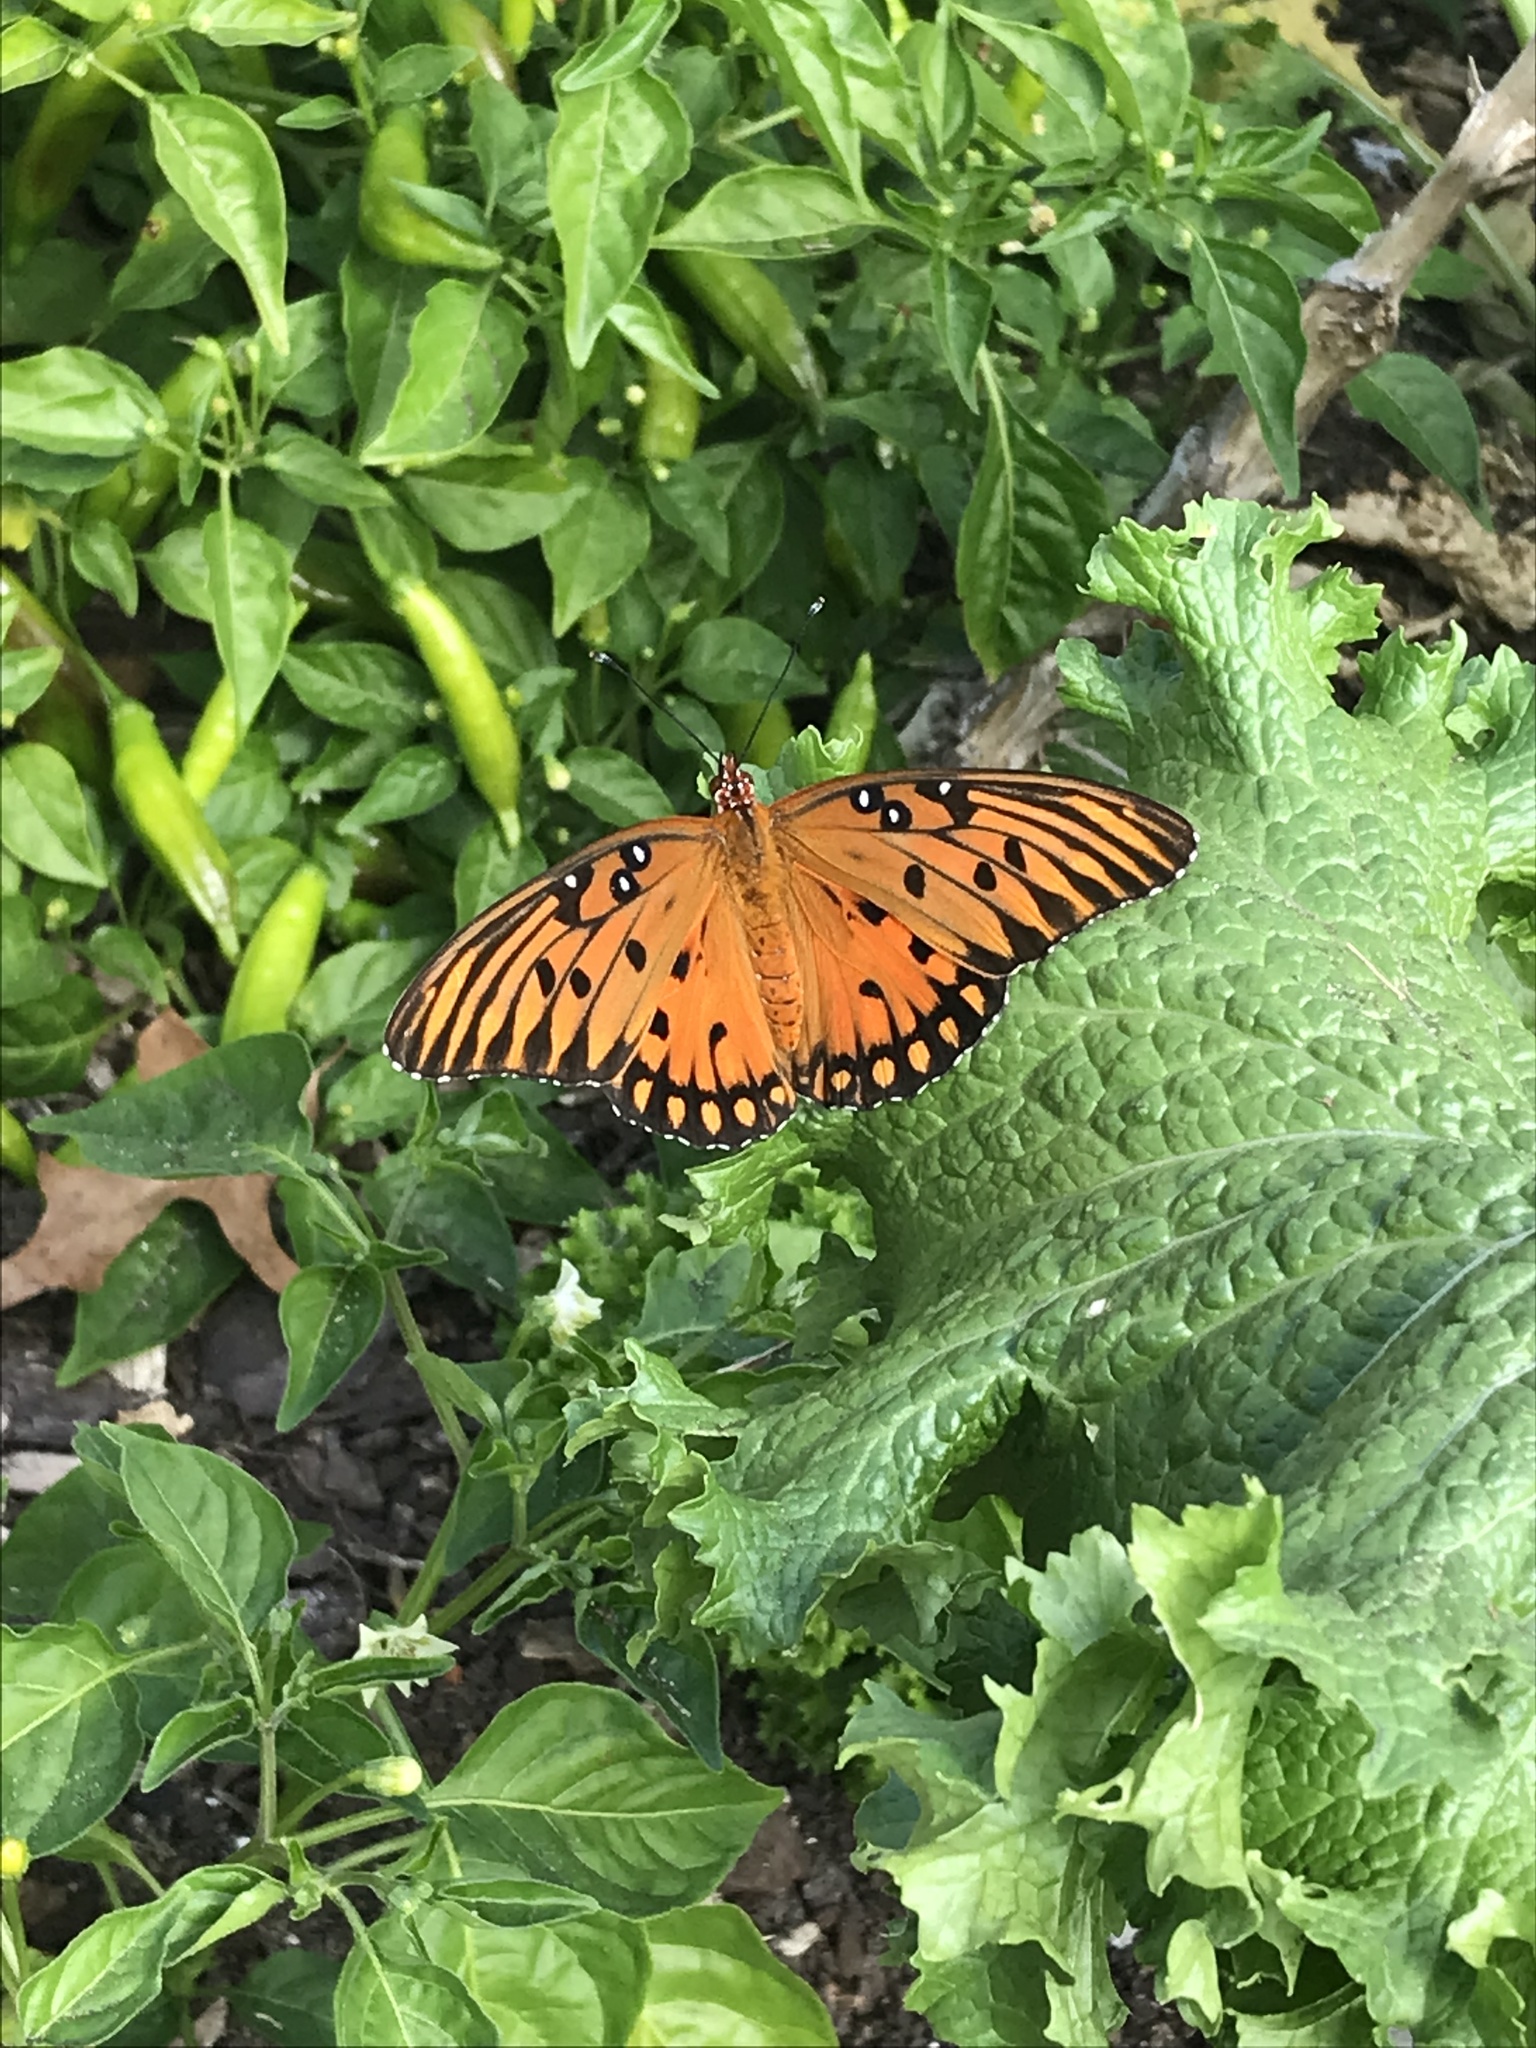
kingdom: Animalia
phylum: Arthropoda
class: Insecta
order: Lepidoptera
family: Nymphalidae
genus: Dione
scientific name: Dione vanillae
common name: Gulf fritillary
